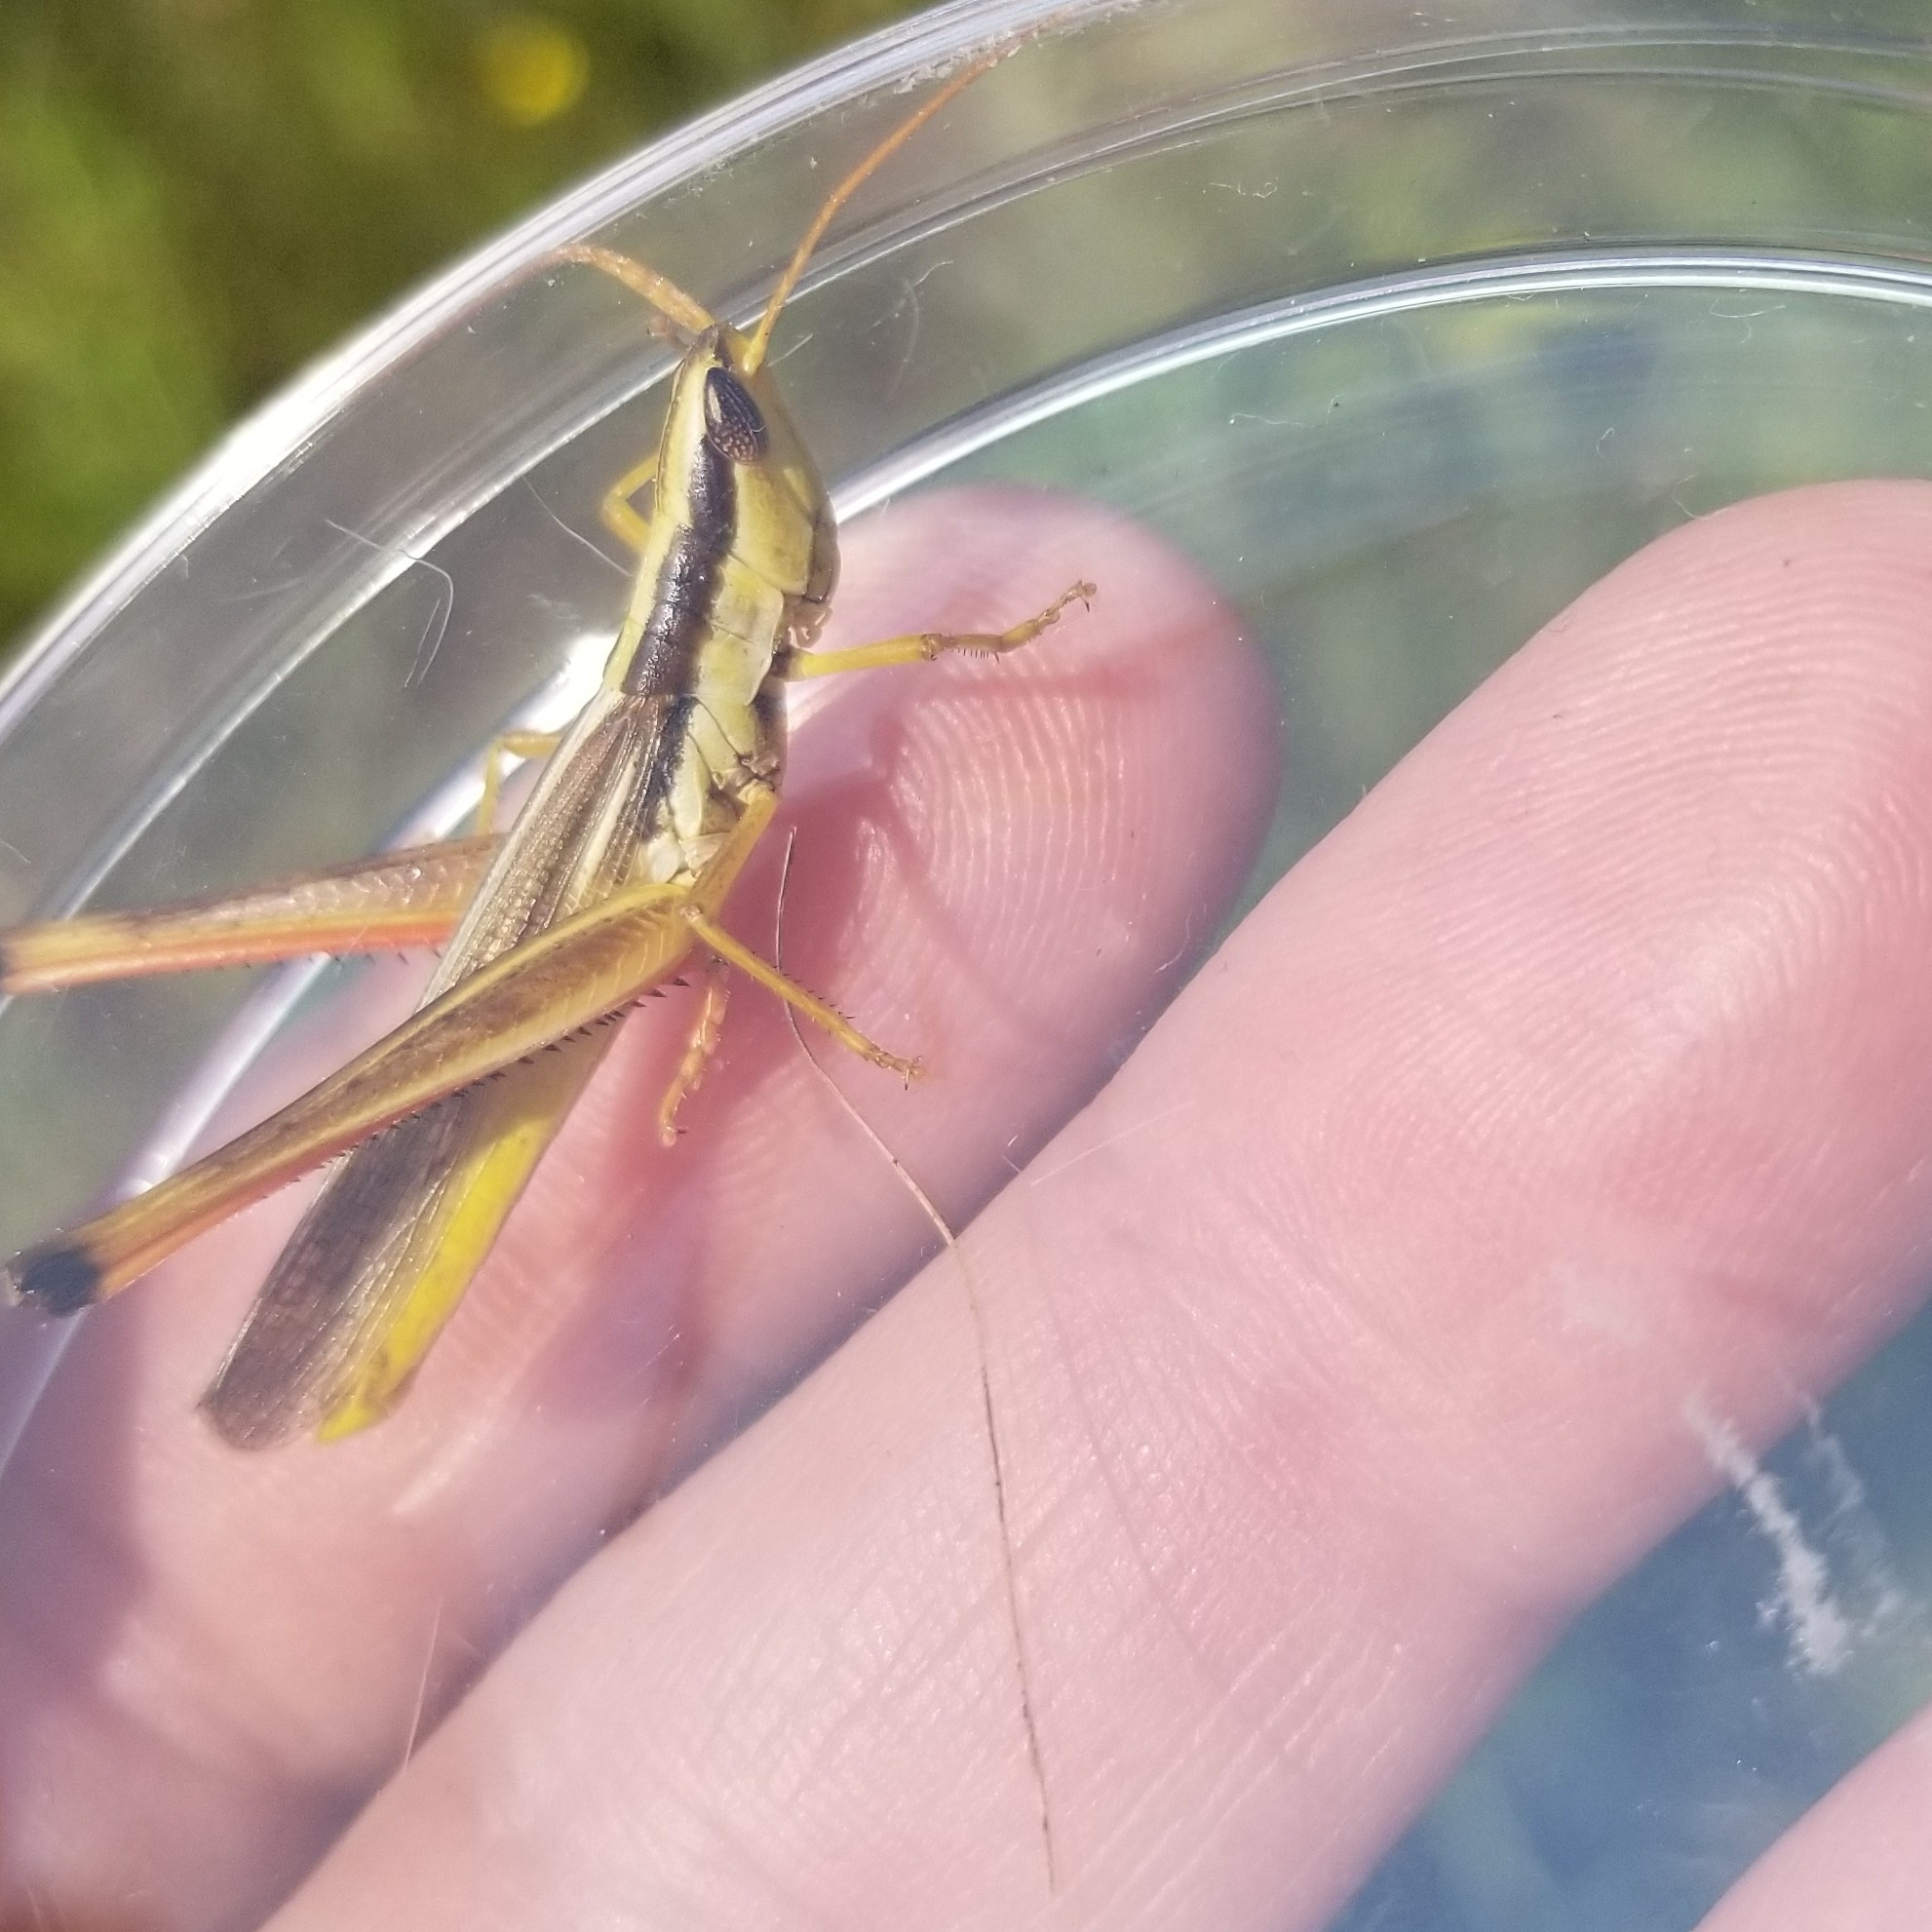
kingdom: Animalia
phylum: Arthropoda
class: Insecta
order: Orthoptera
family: Acrididae
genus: Mermiria
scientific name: Mermiria bivittata
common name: Two-striped mermiria grasshopper
